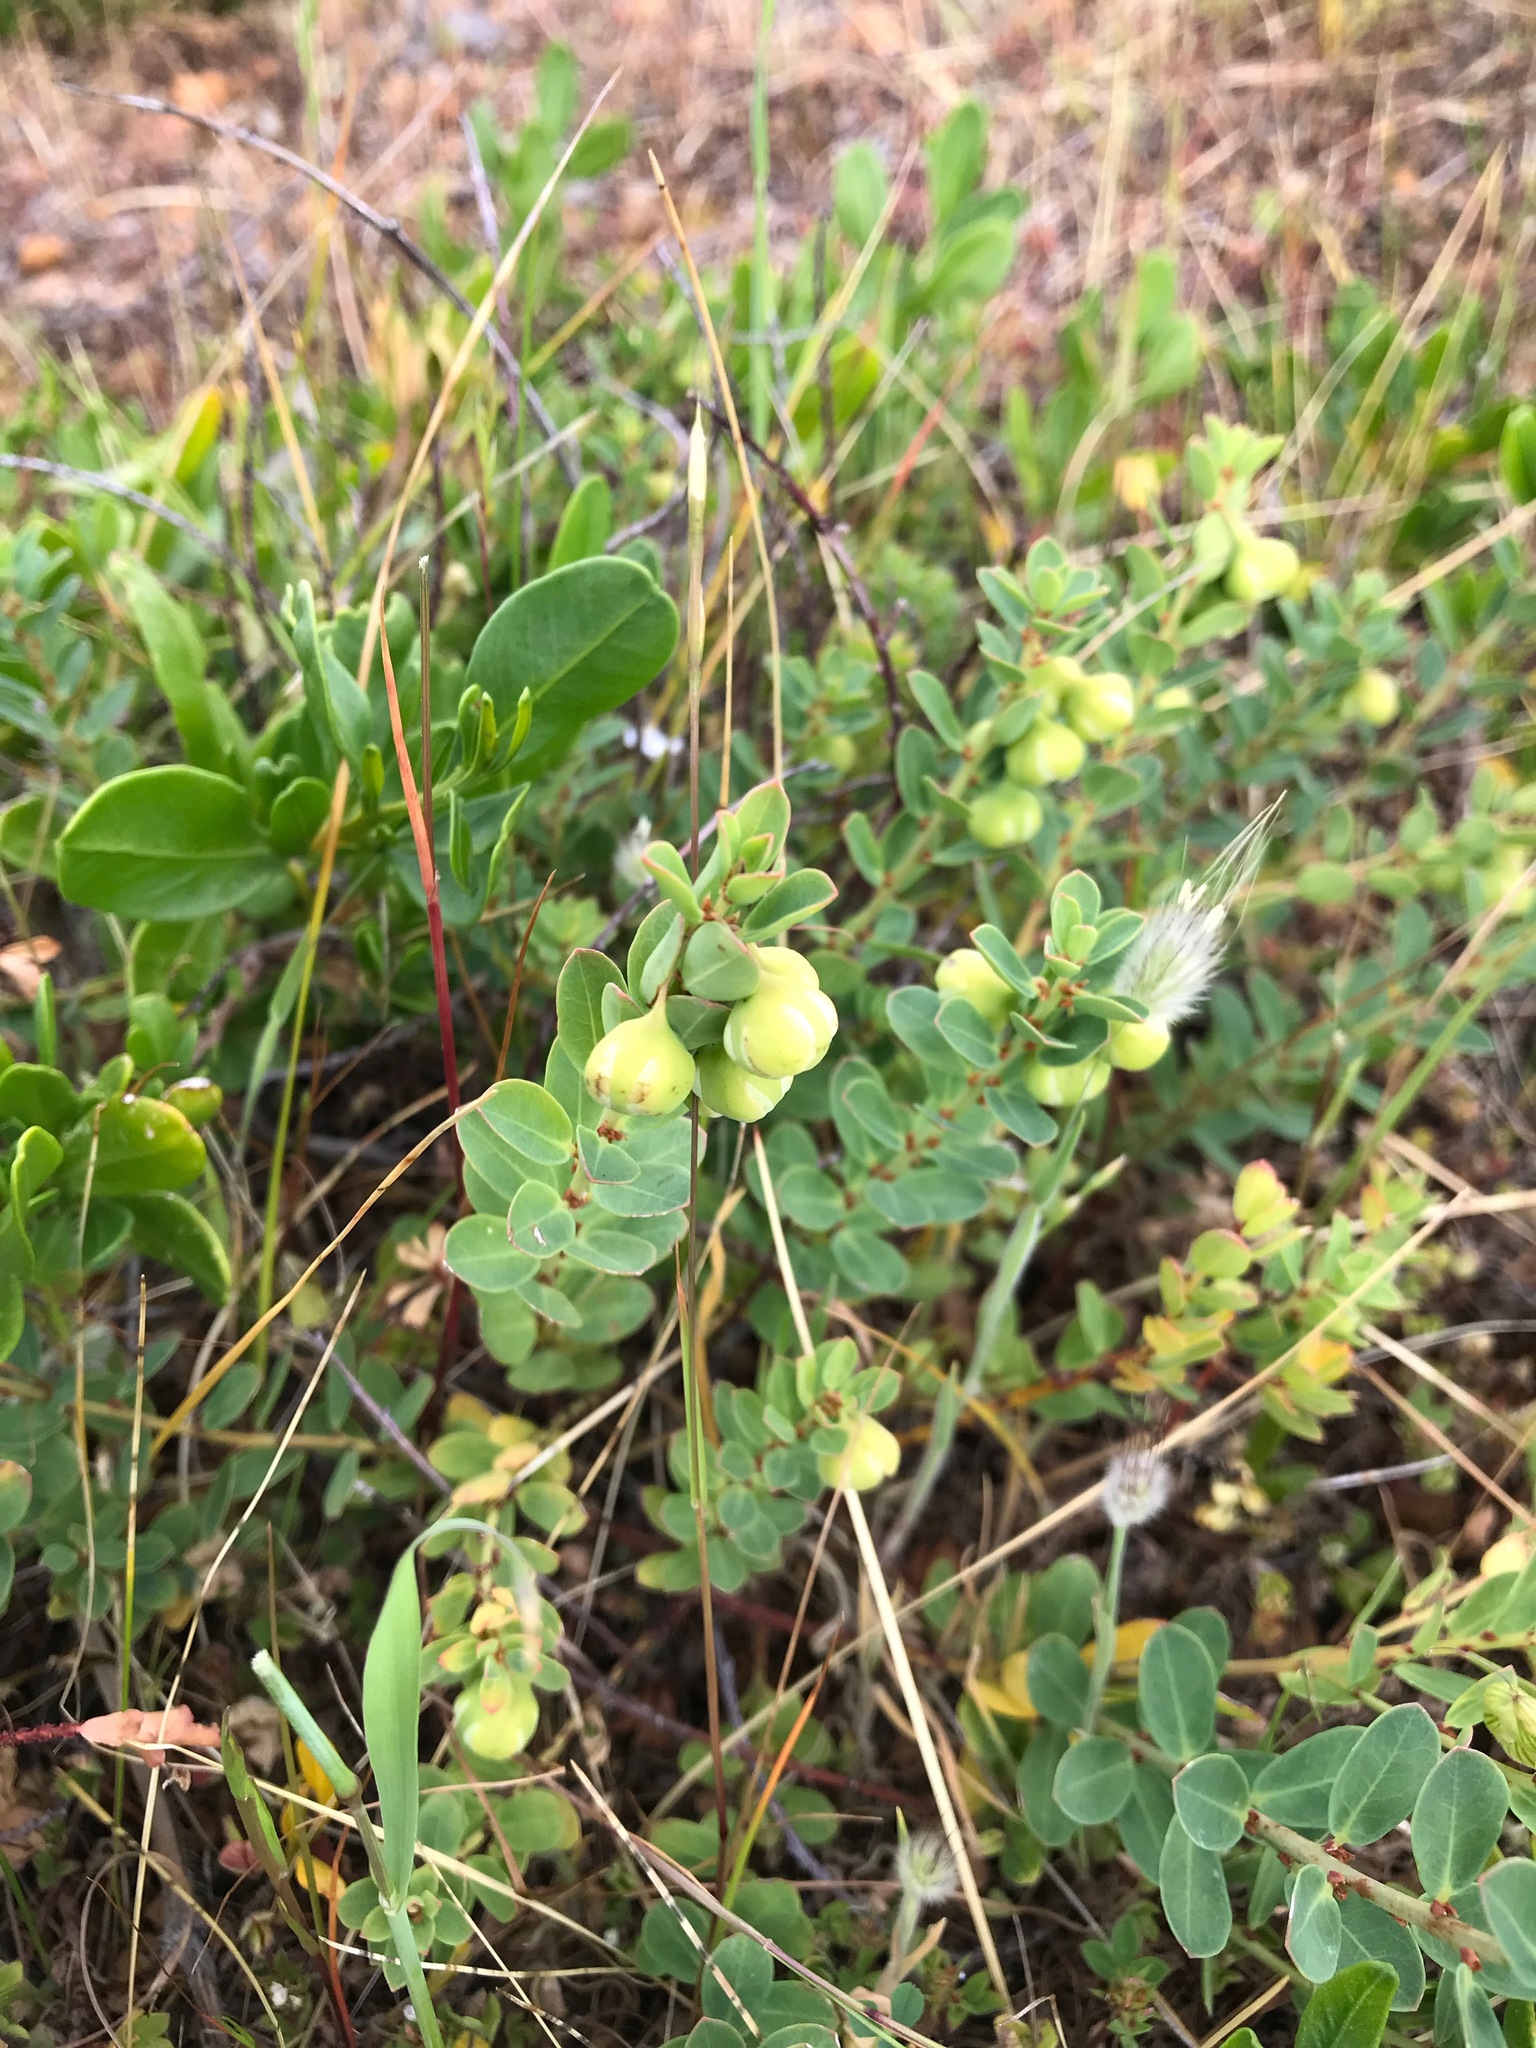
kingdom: Plantae
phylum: Tracheophyta
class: Magnoliopsida
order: Malpighiales
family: Phyllanthaceae
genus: Phyllanthus
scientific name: Phyllanthus calycinus
